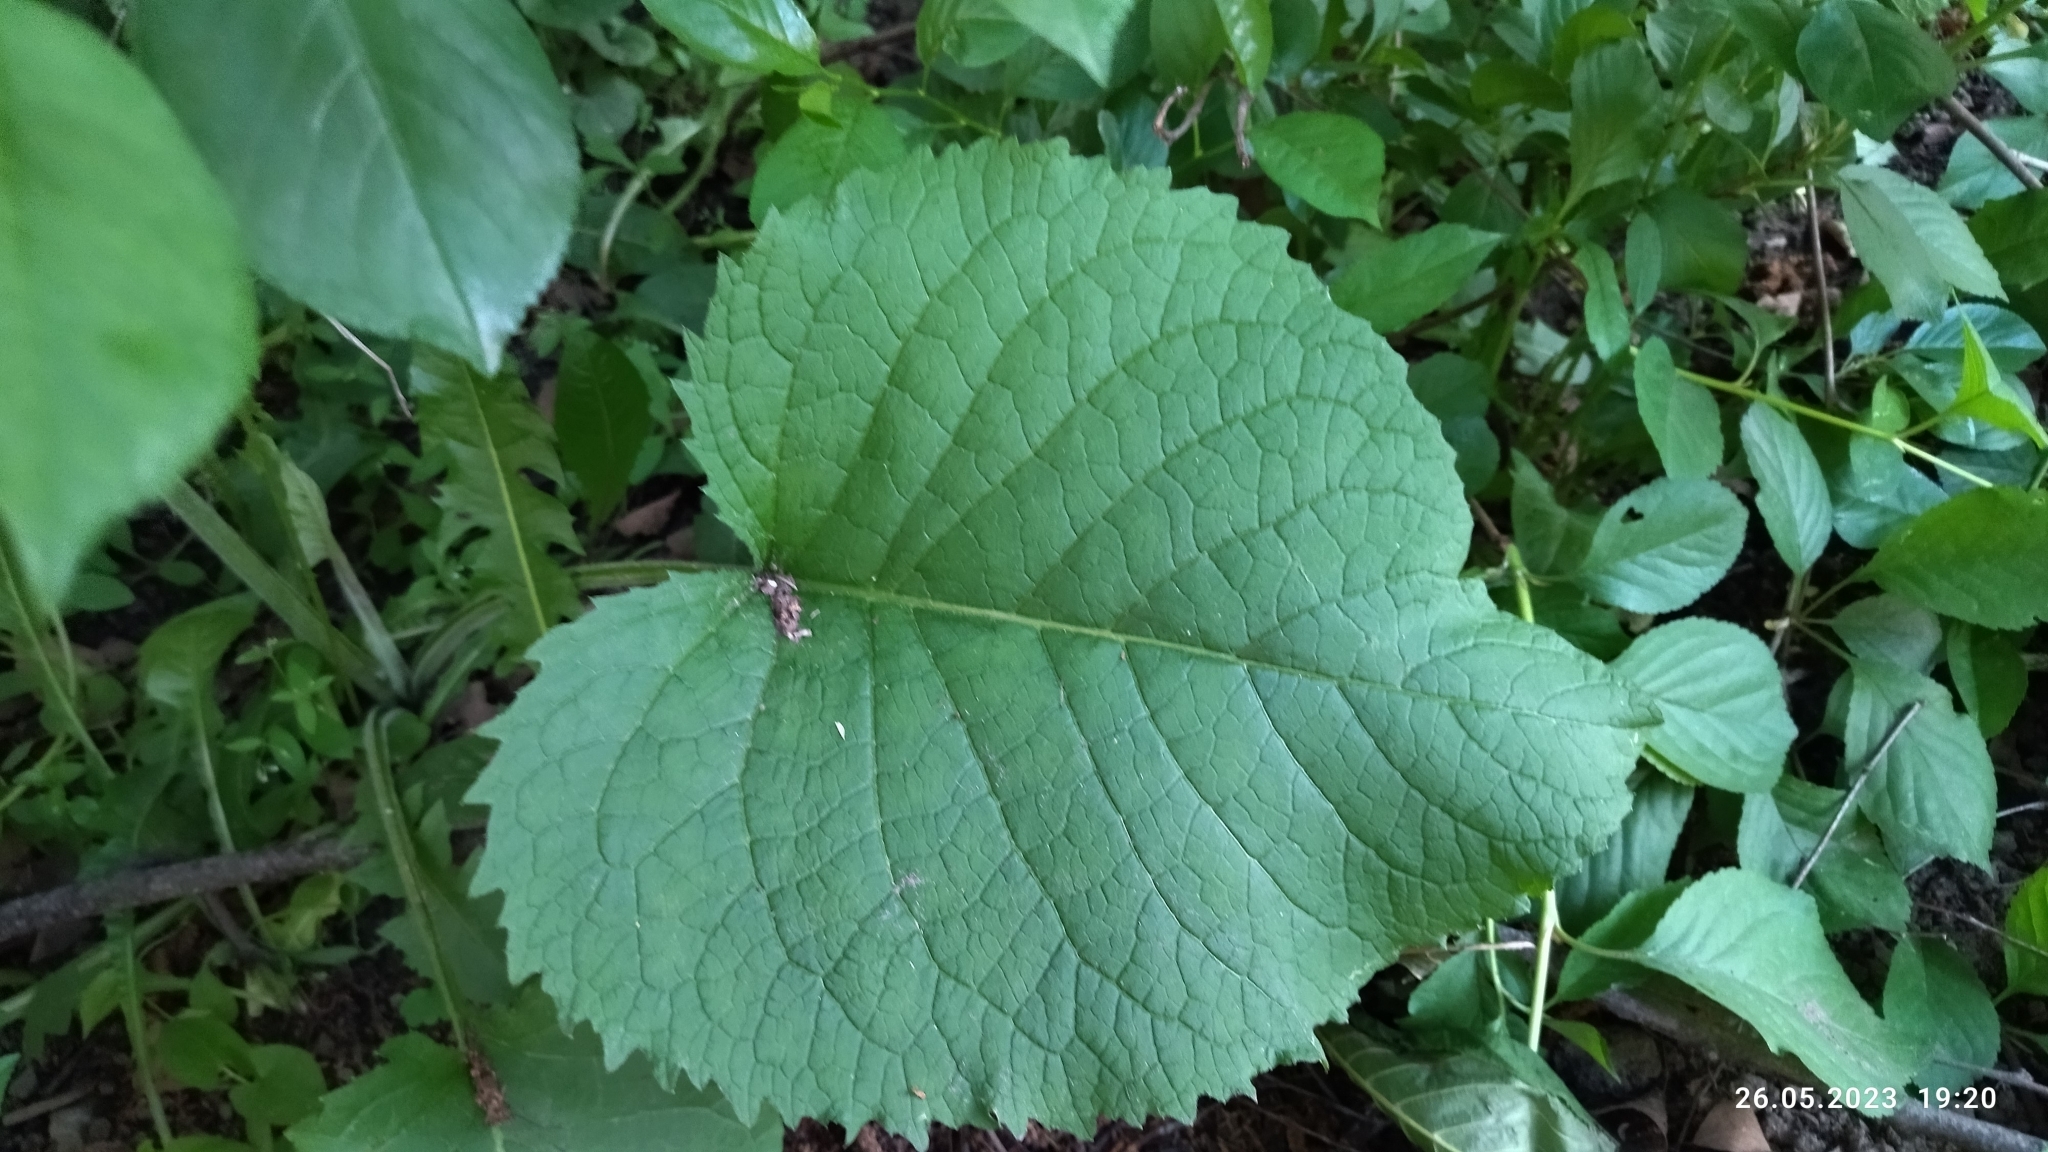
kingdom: Plantae
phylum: Tracheophyta
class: Magnoliopsida
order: Asterales
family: Asteraceae
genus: Telekia
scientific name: Telekia speciosa
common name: Yellow oxeye
